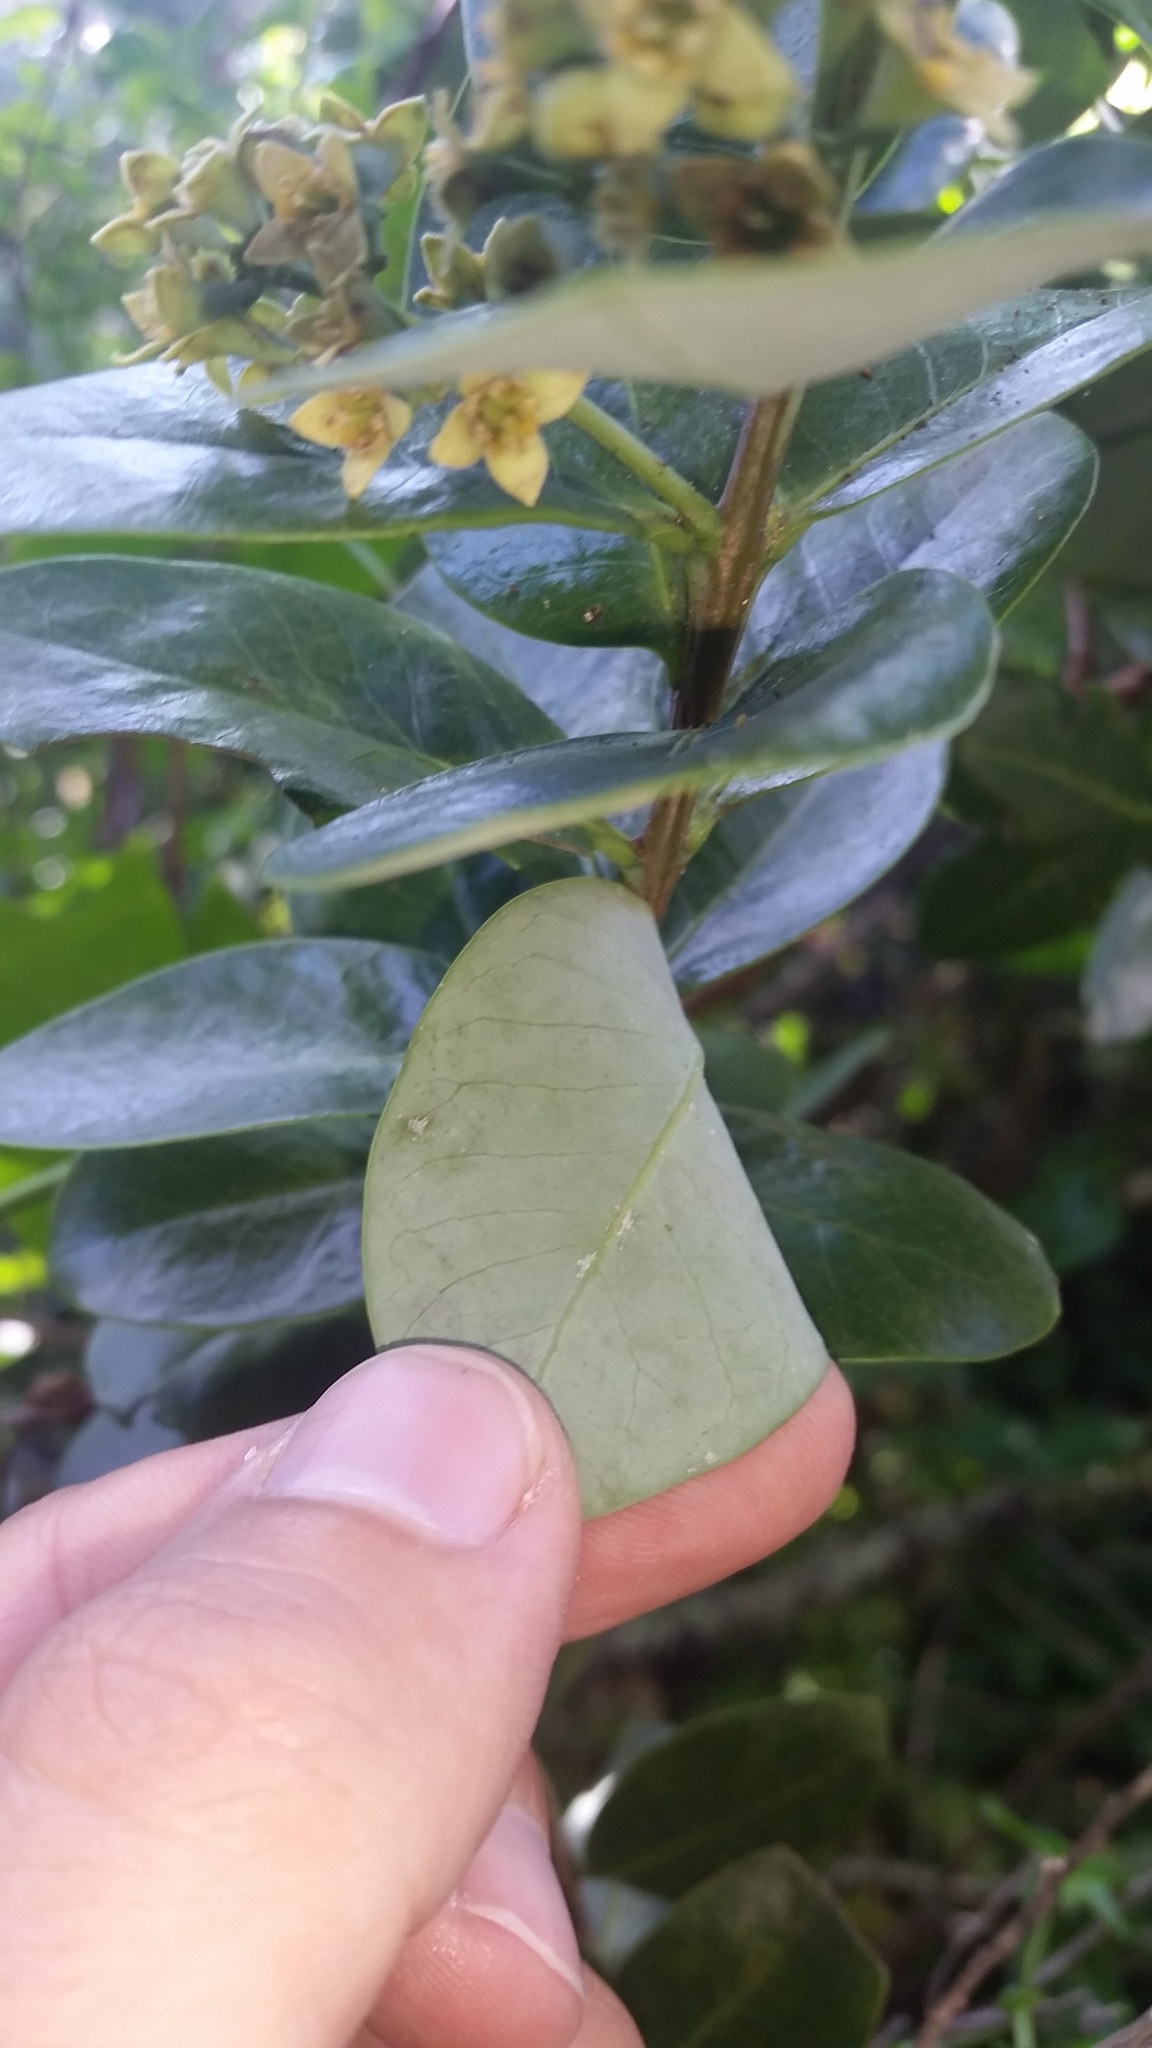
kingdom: Plantae
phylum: Tracheophyta
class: Magnoliopsida
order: Santalales
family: Santalaceae
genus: Santalum
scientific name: Santalum paniculatum
